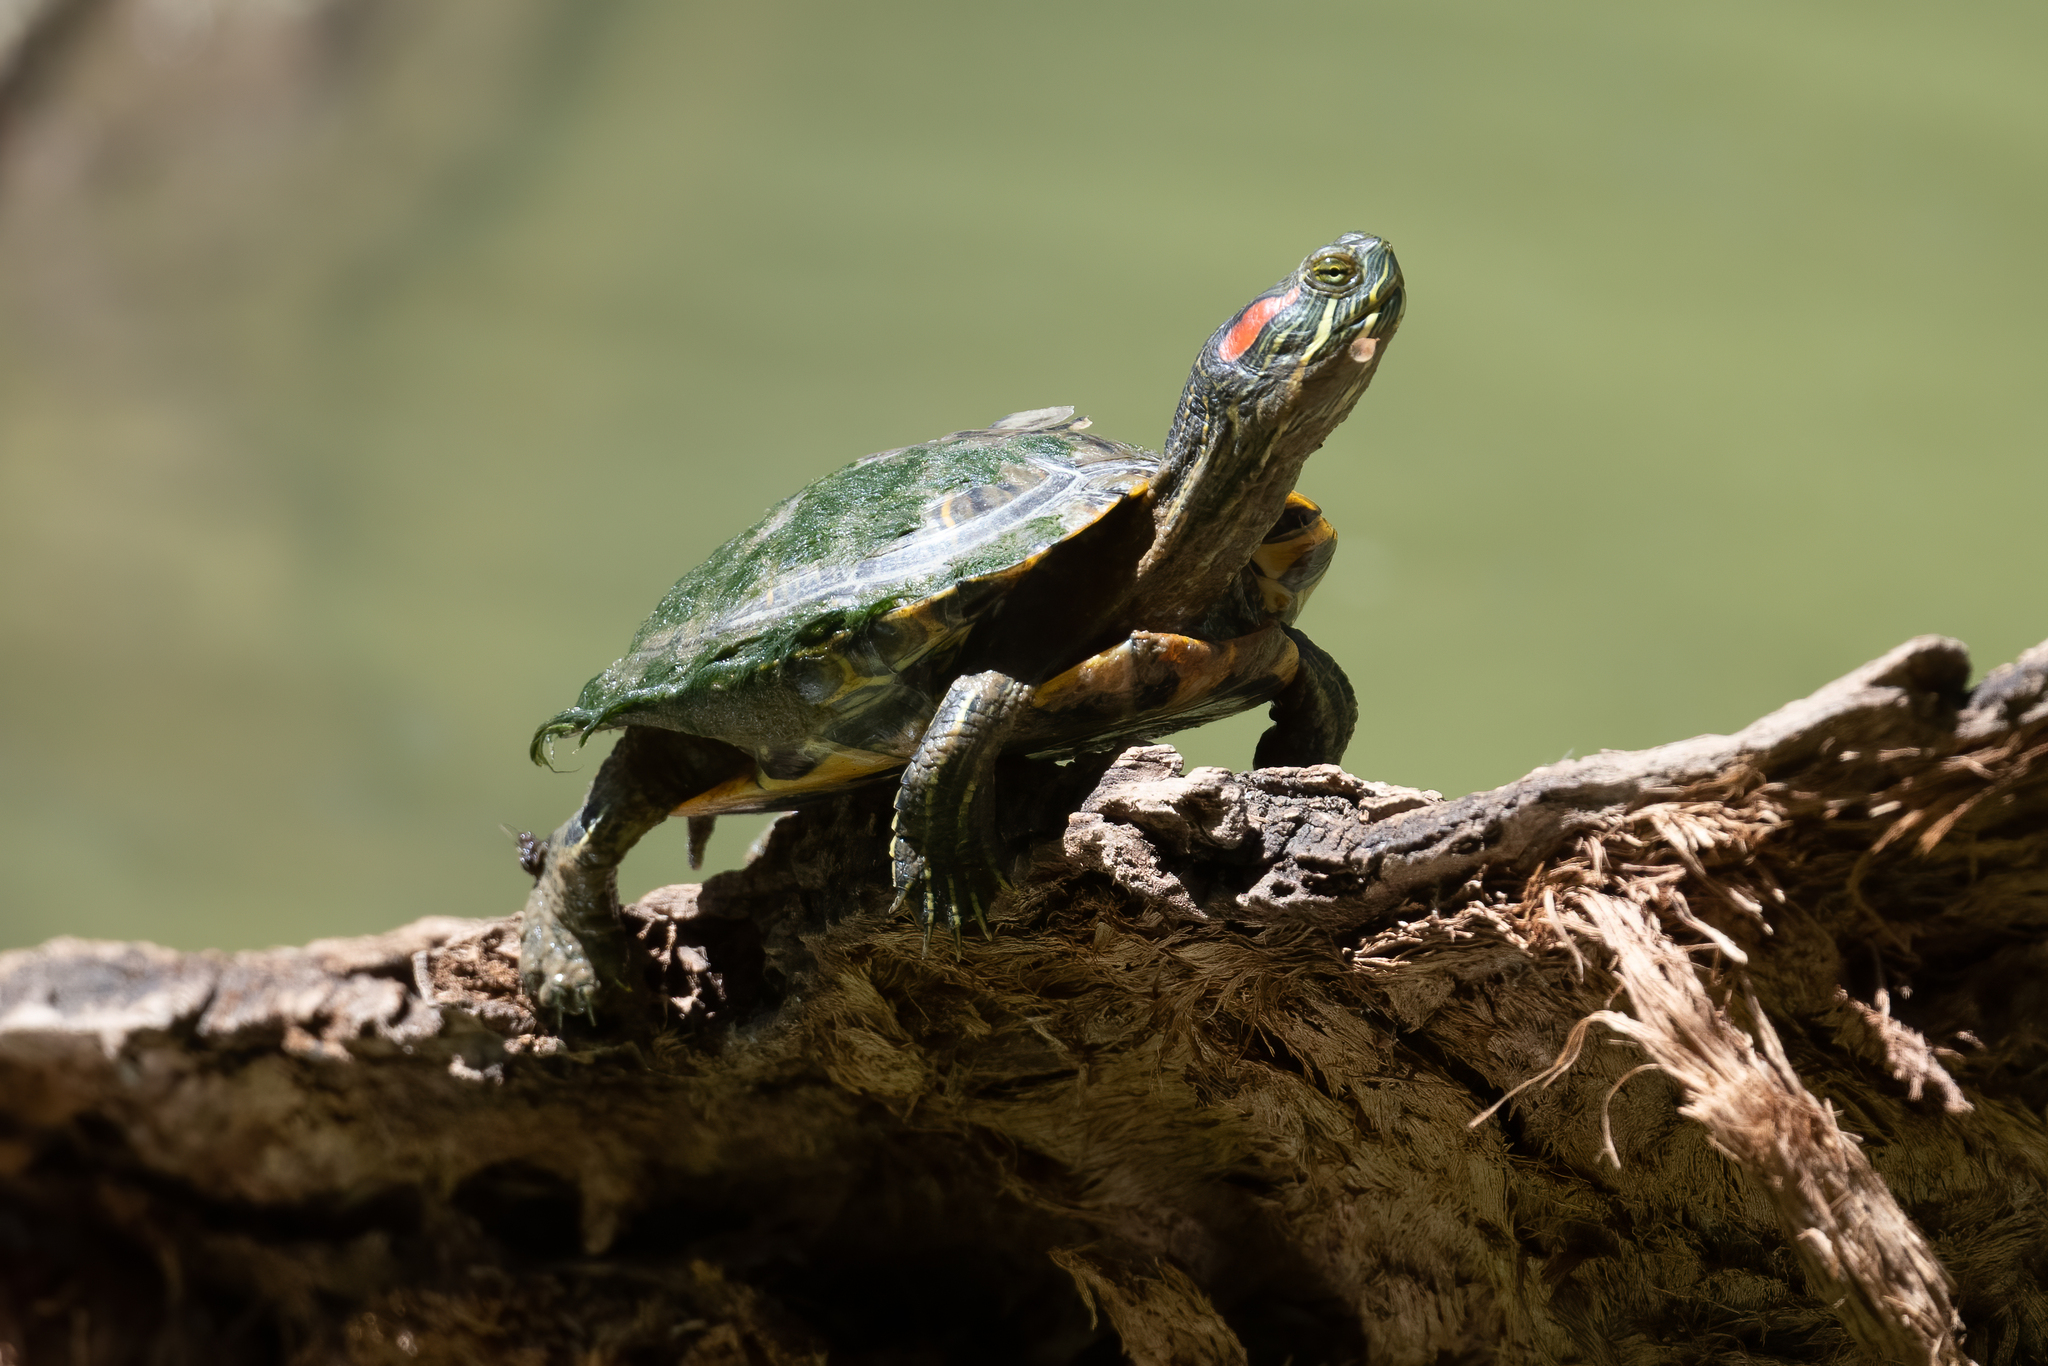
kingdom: Animalia
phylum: Chordata
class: Testudines
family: Emydidae
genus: Trachemys
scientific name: Trachemys scripta
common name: Slider
